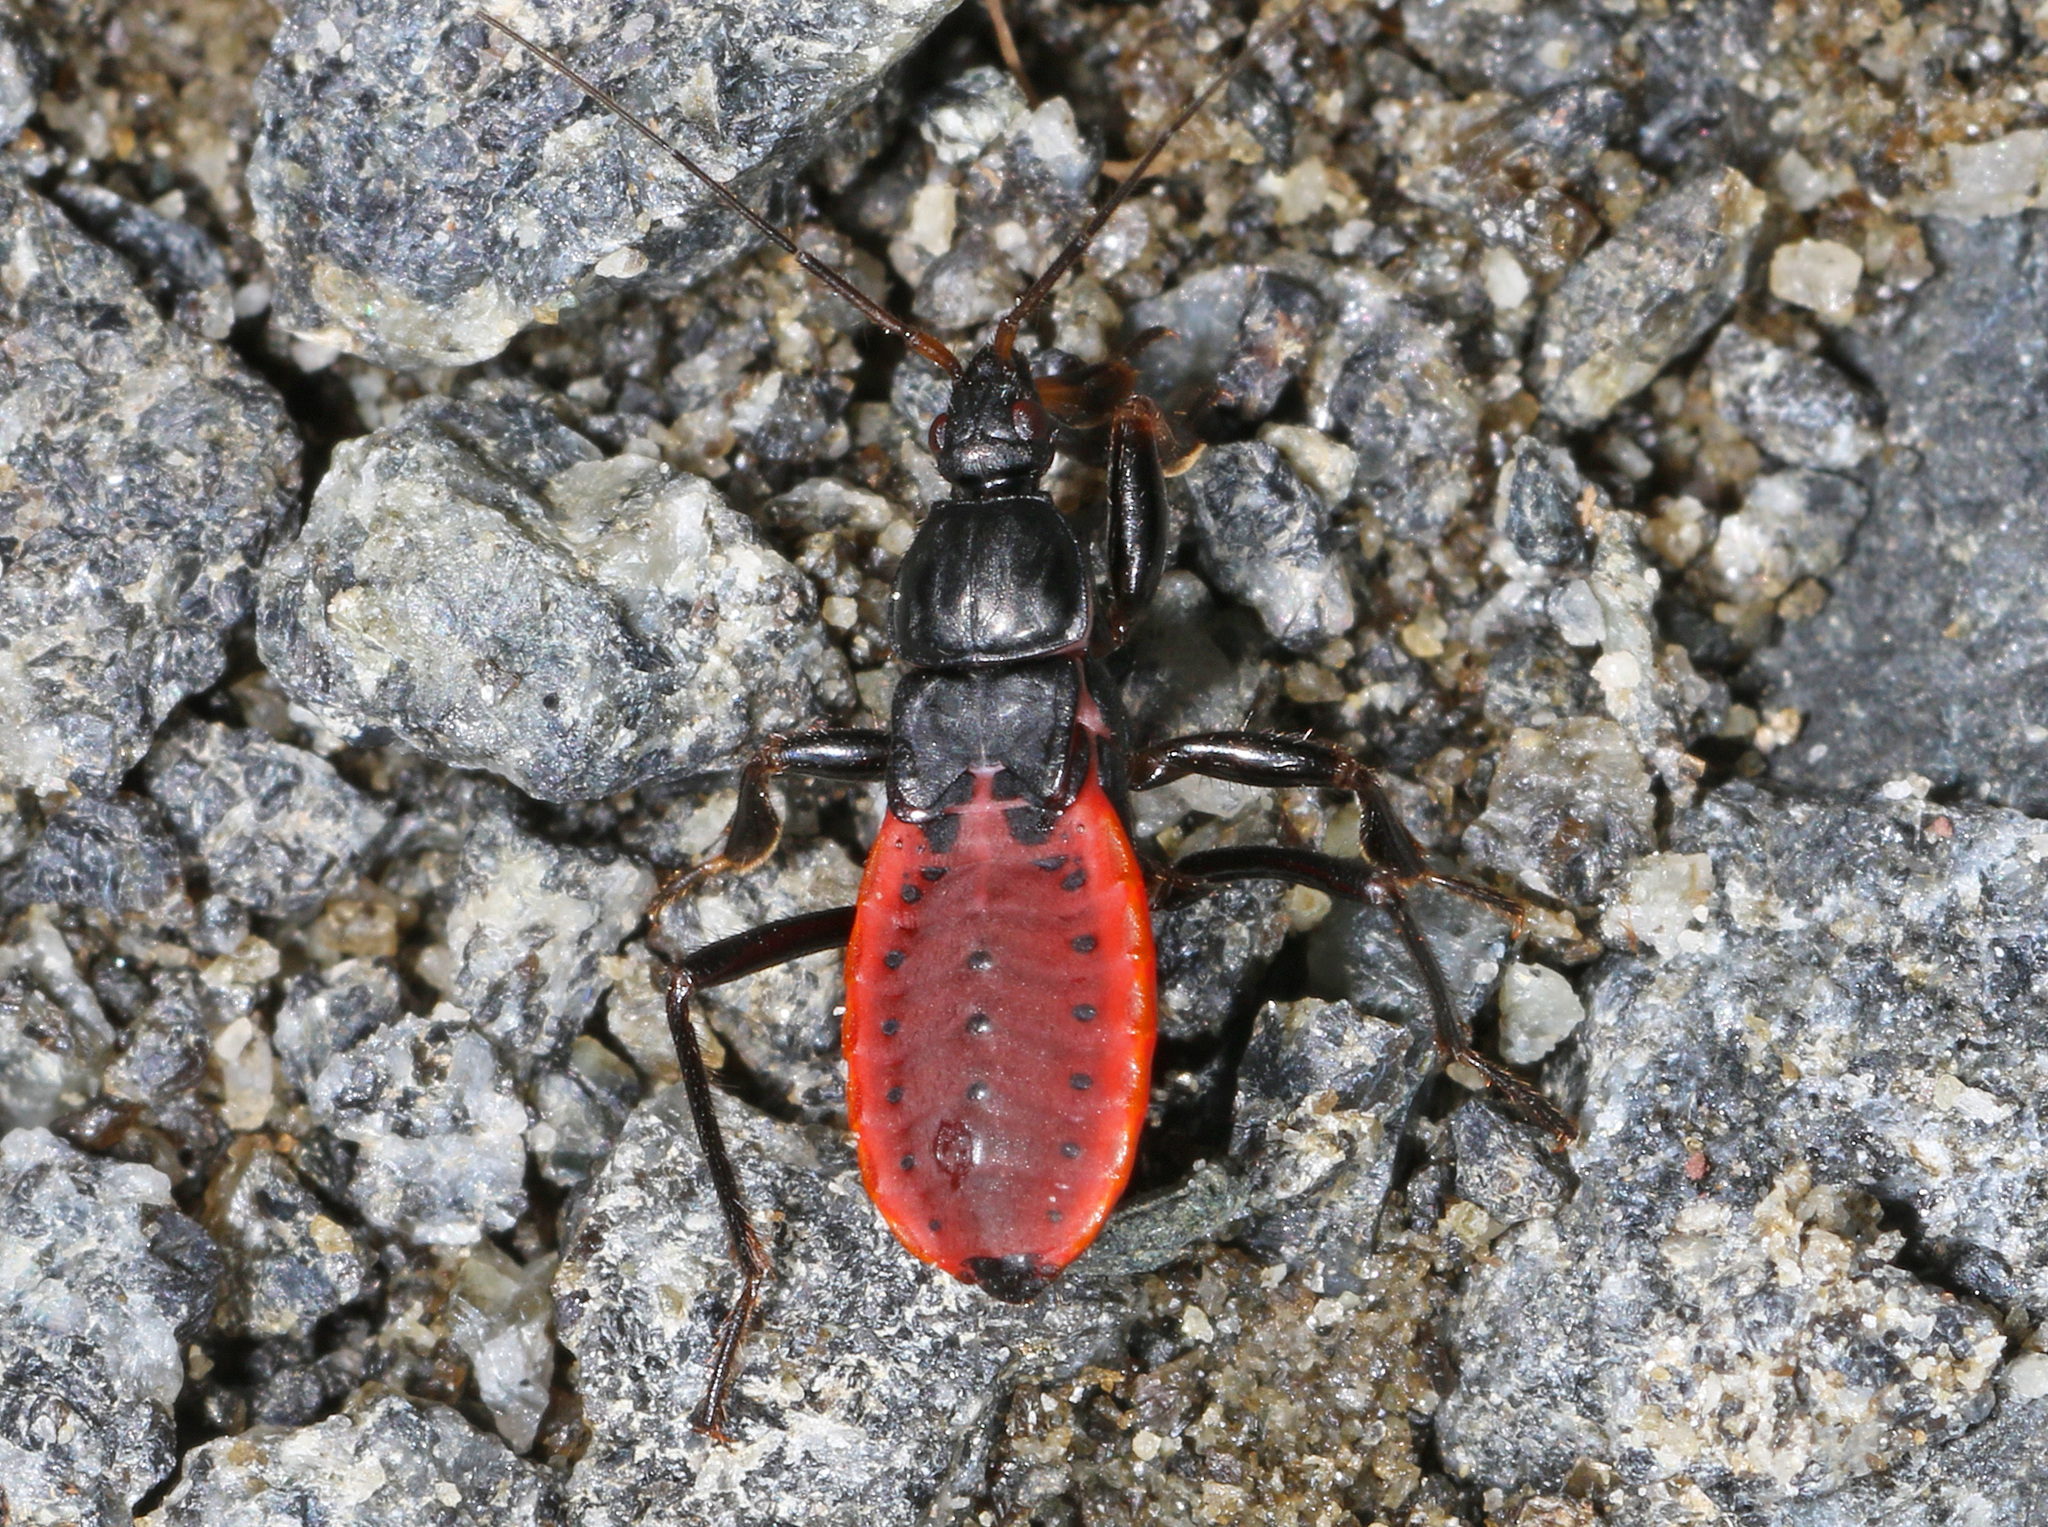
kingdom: Animalia
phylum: Arthropoda
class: Insecta
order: Hemiptera
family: Reduviidae
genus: Melanolestes
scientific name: Melanolestes picipes
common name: Assassin bug
